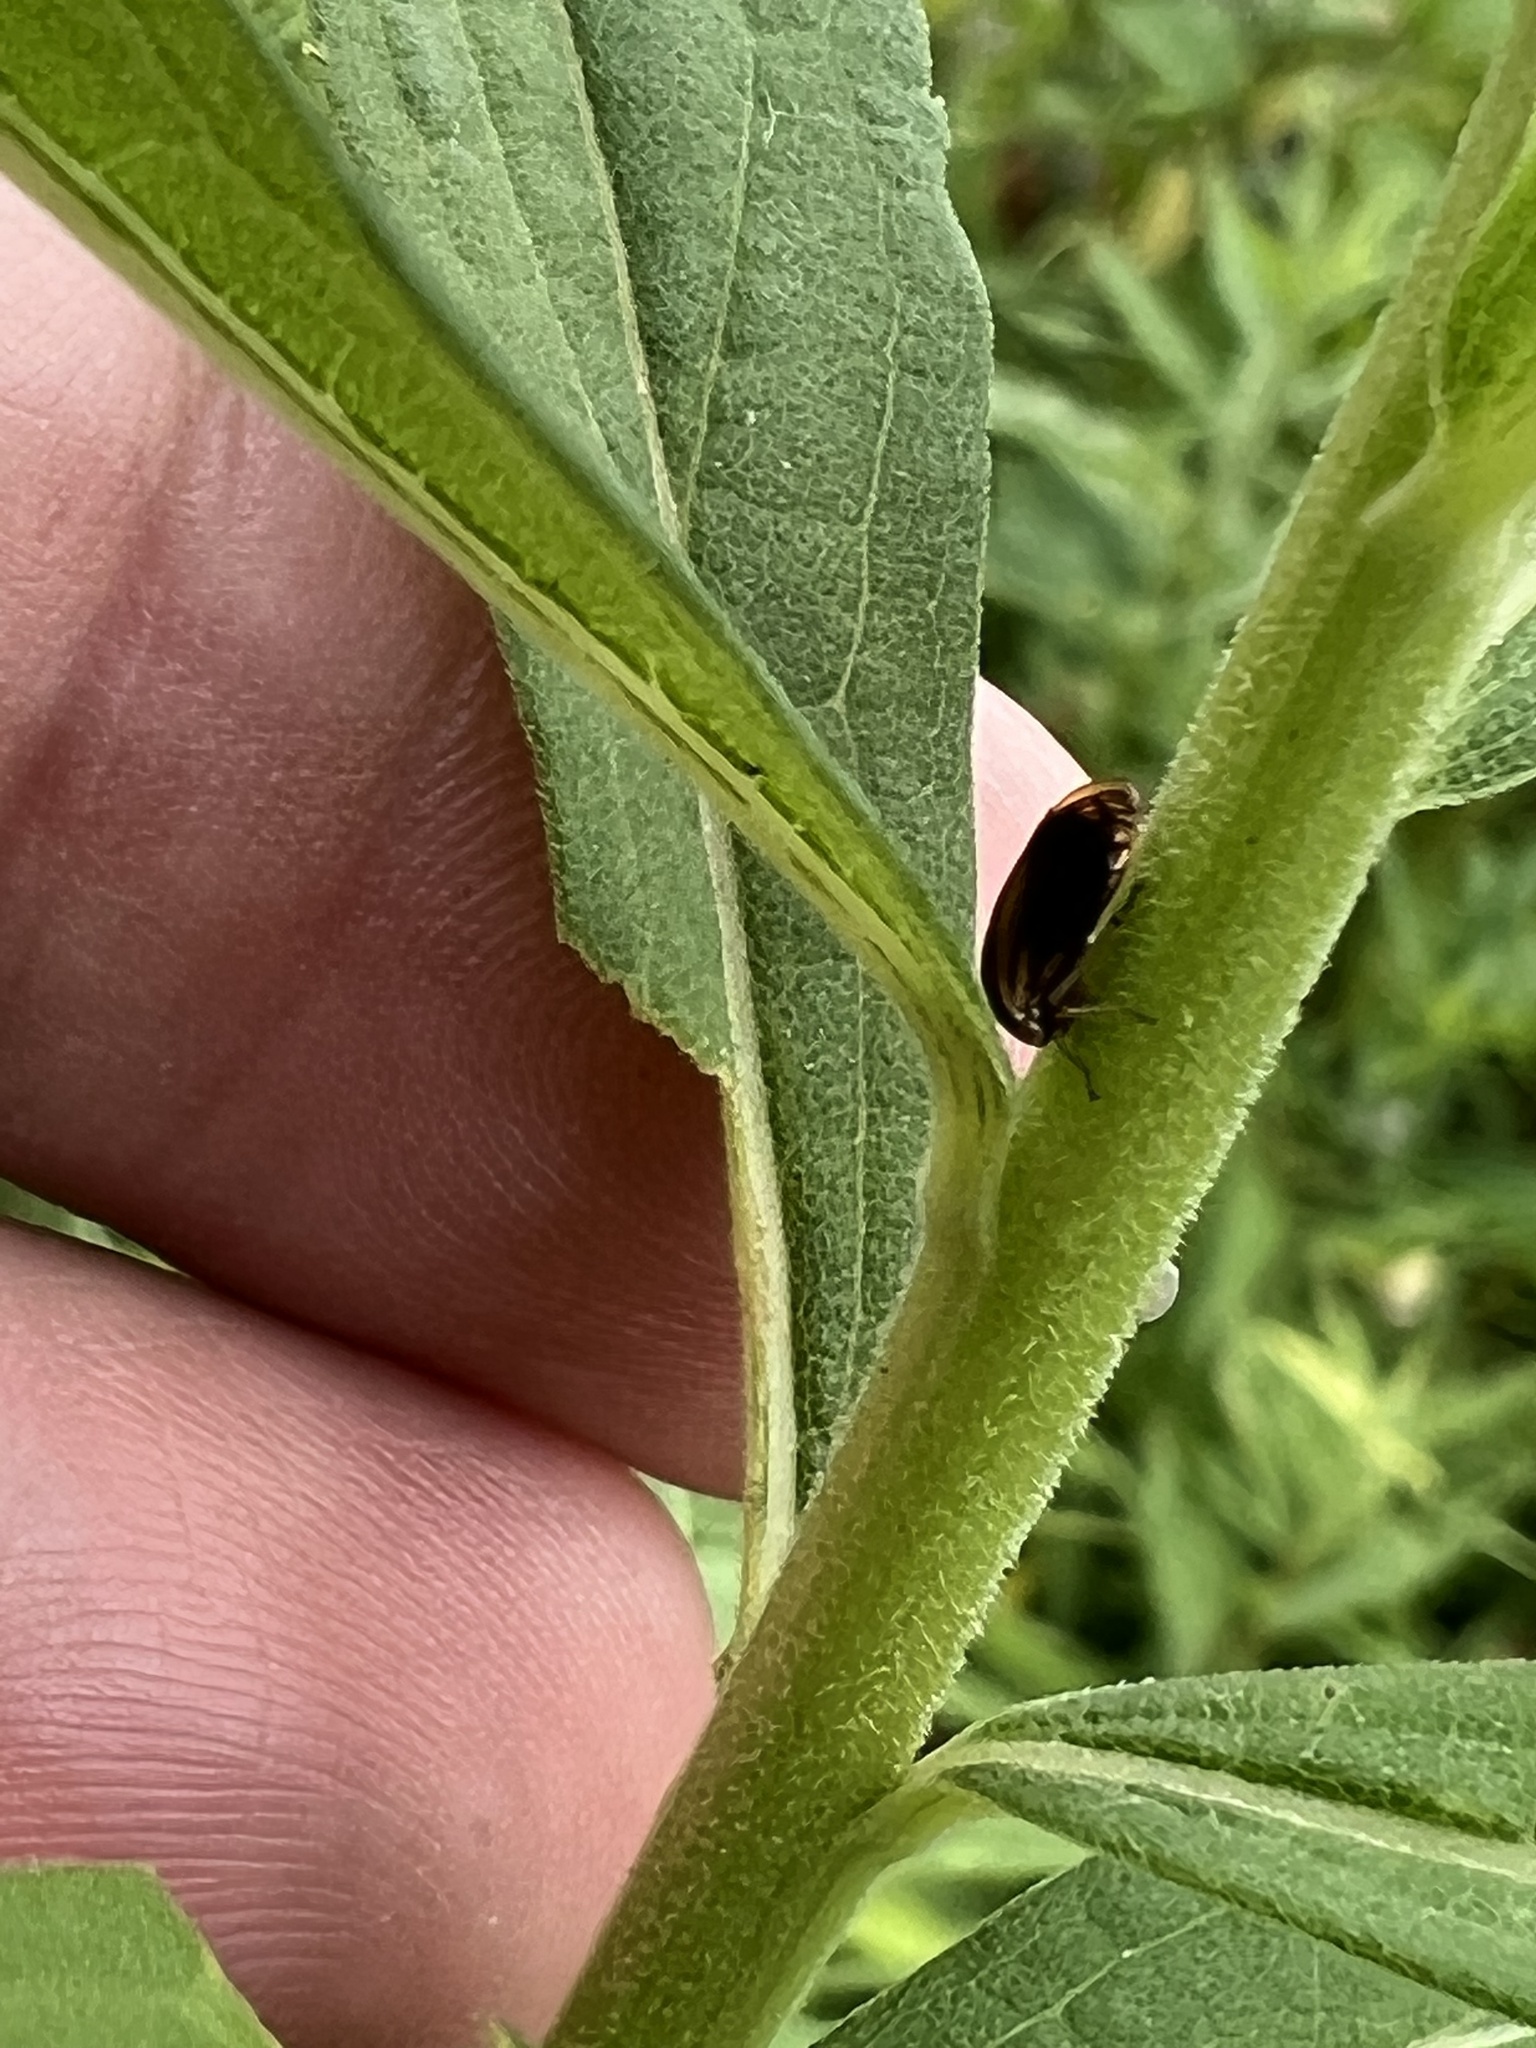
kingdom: Animalia
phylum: Arthropoda
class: Insecta
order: Hemiptera
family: Membracidae
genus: Acutalis
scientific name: Acutalis tartarea
